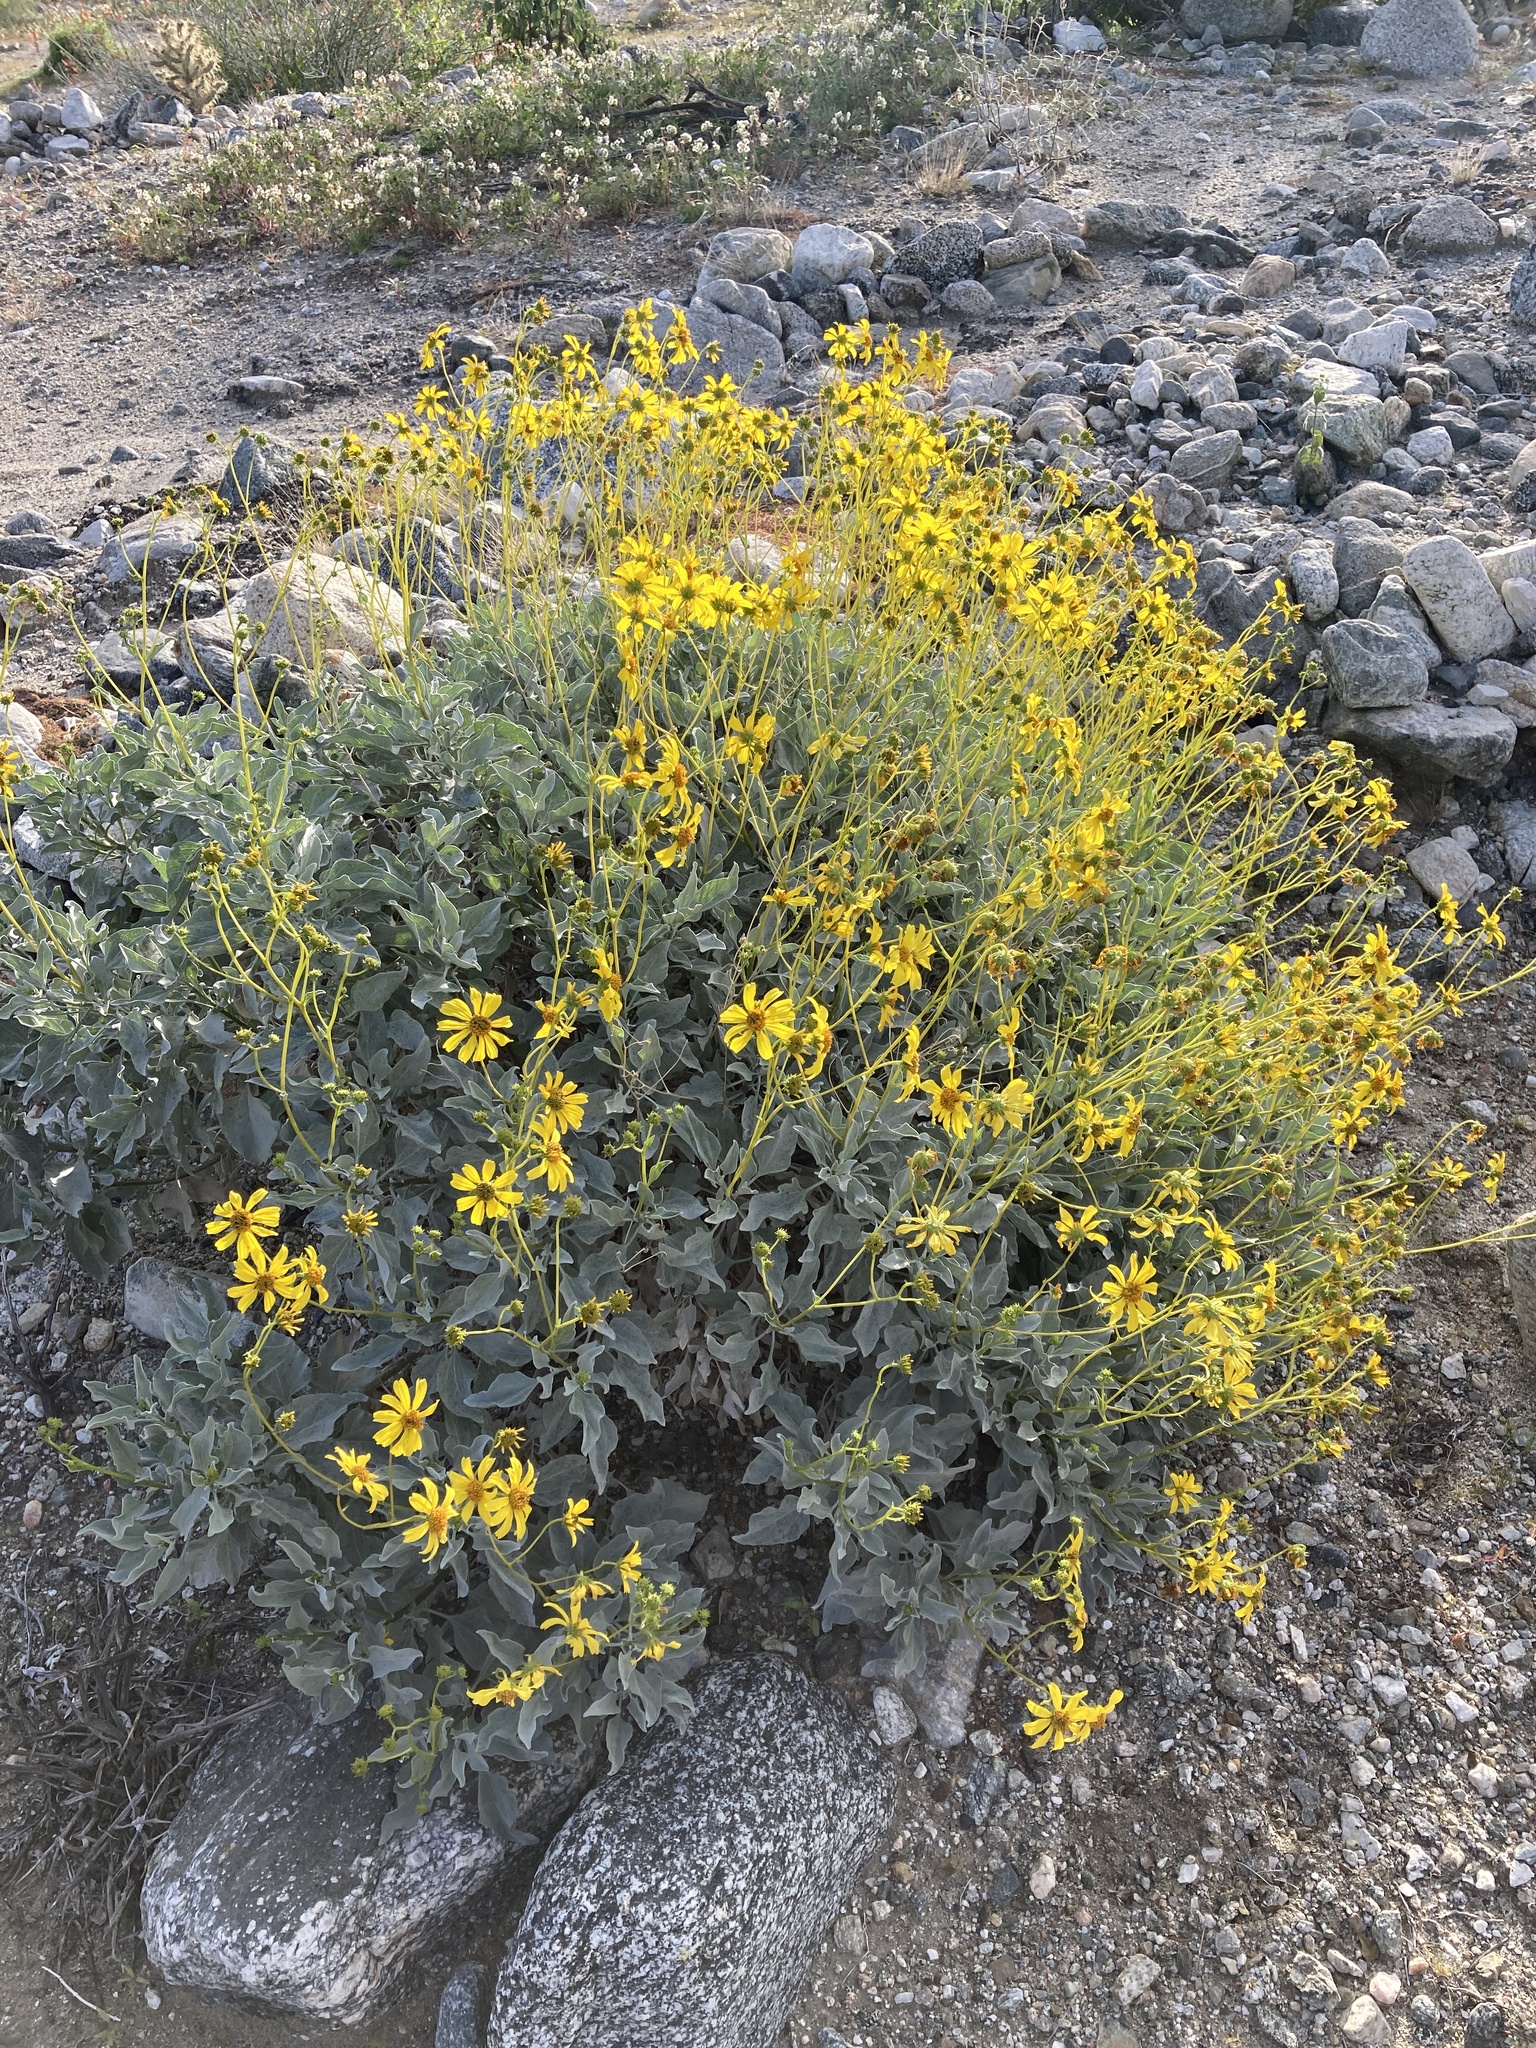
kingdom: Plantae
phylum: Tracheophyta
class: Magnoliopsida
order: Asterales
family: Asteraceae
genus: Encelia
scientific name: Encelia farinosa
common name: Brittlebush
